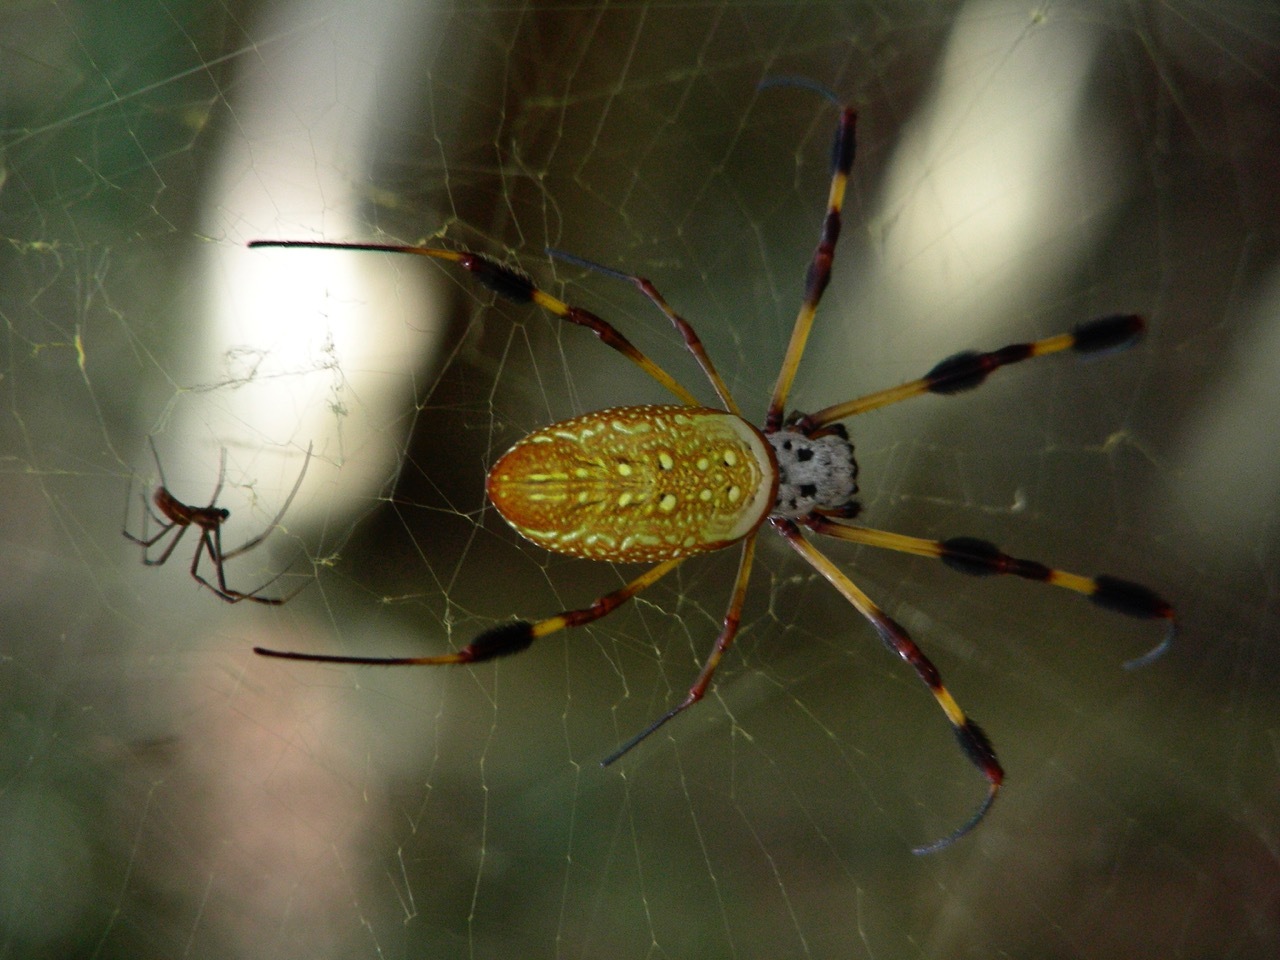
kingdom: Animalia
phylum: Arthropoda
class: Arachnida
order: Araneae
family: Araneidae
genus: Trichonephila
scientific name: Trichonephila clavipes
